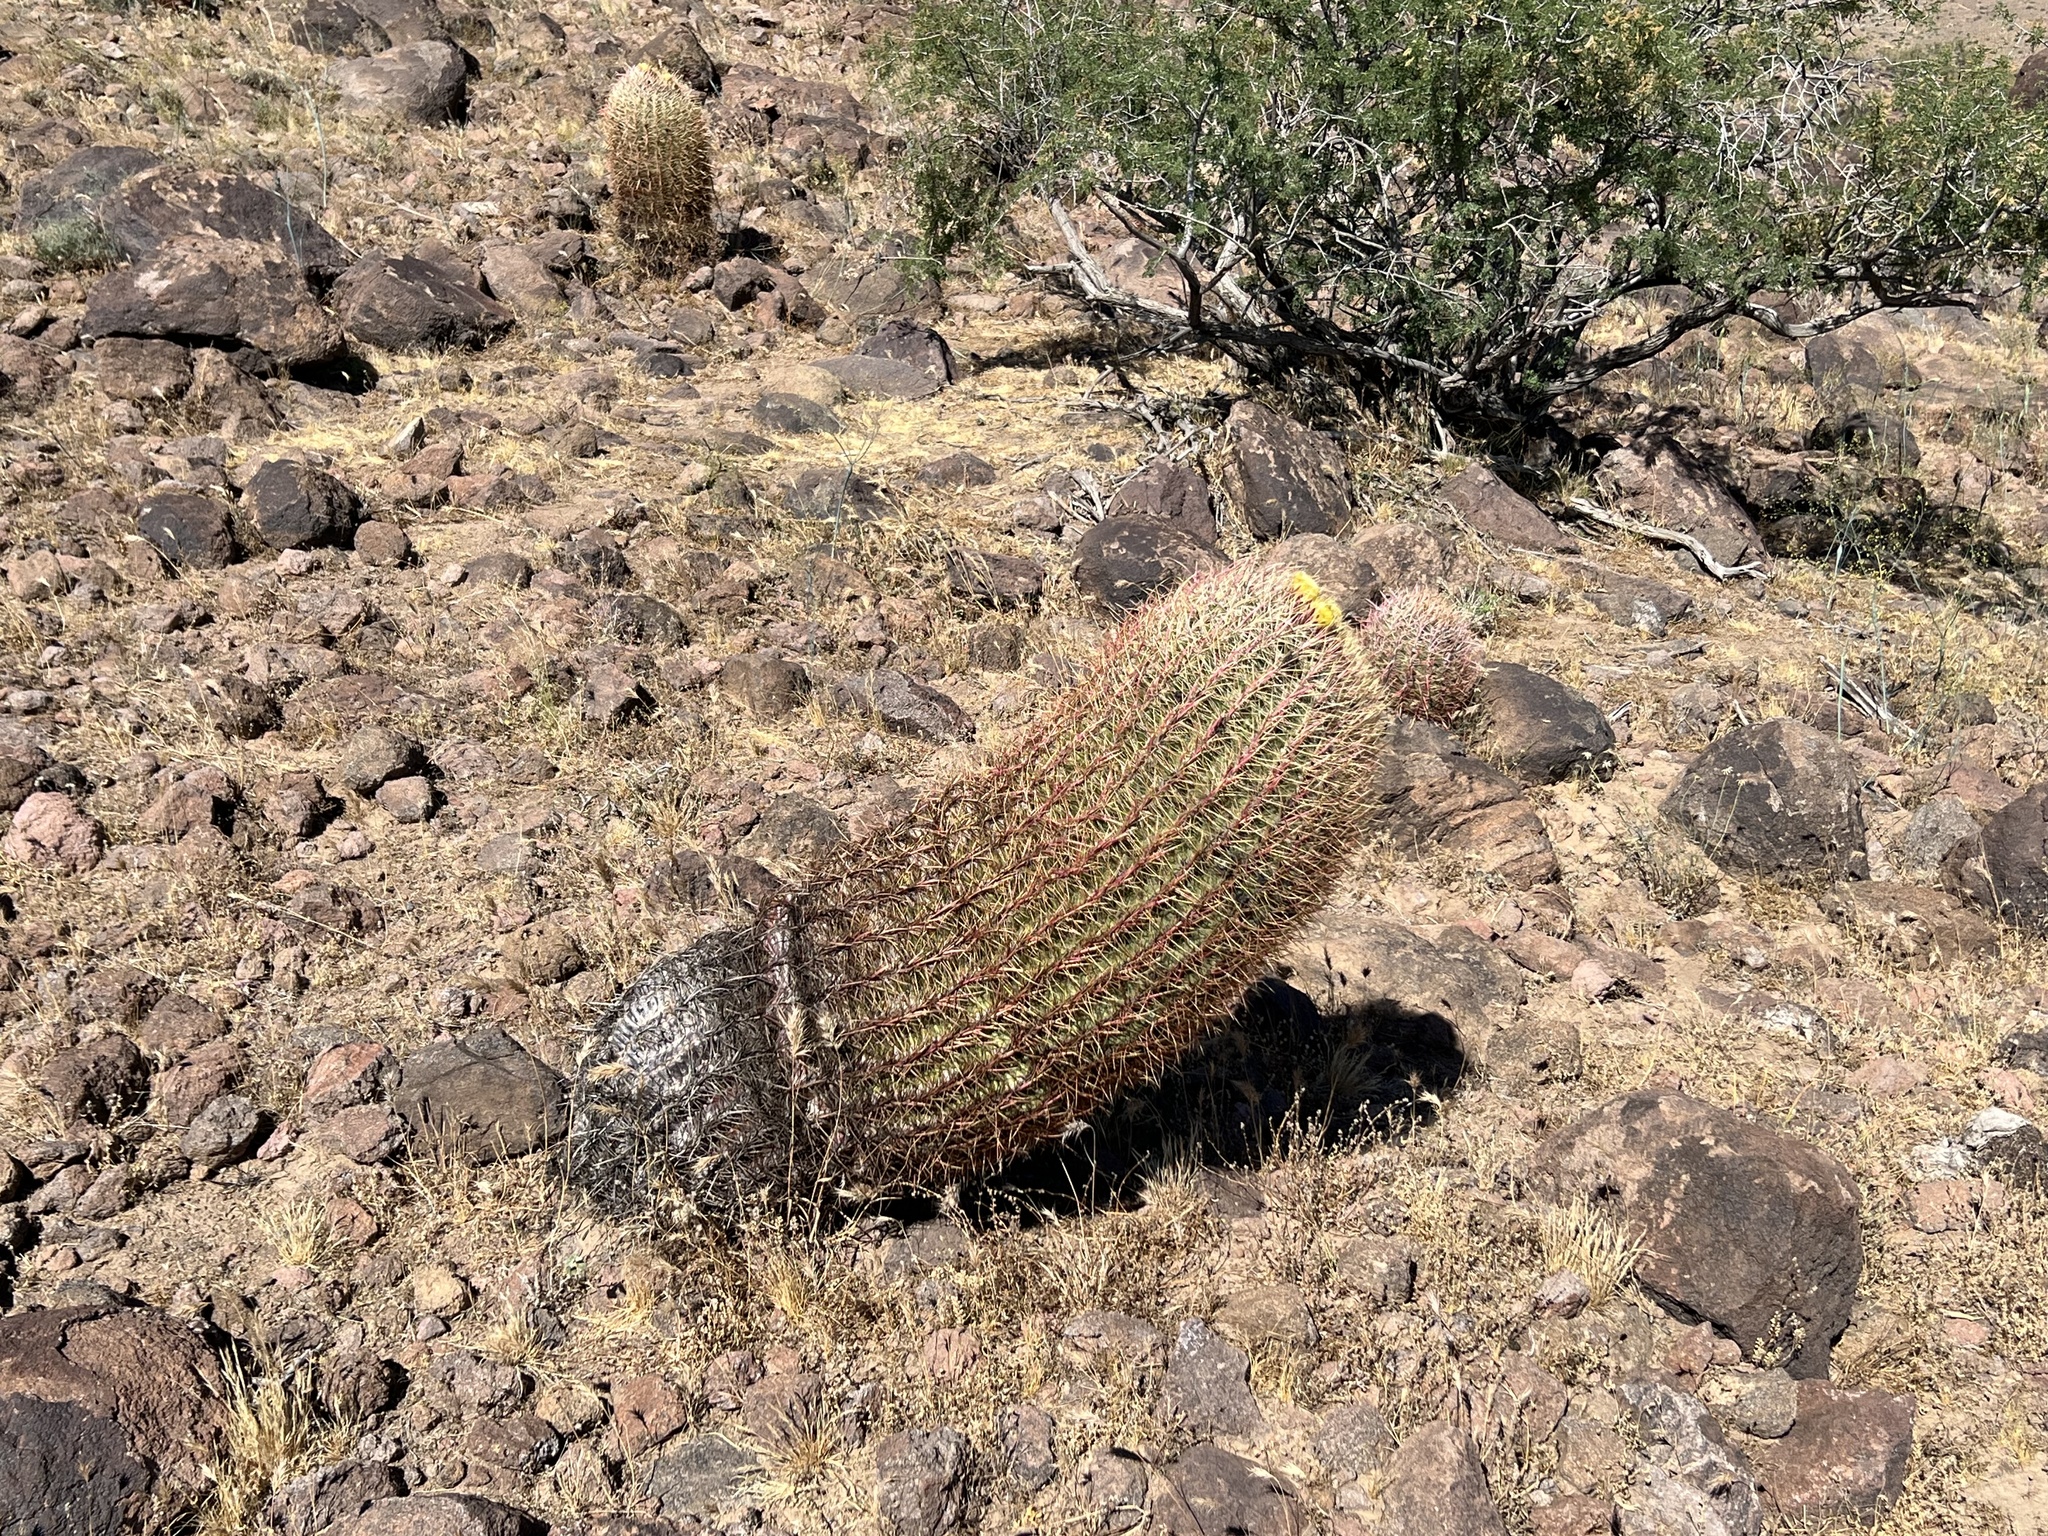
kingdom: Plantae
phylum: Tracheophyta
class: Magnoliopsida
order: Caryophyllales
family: Cactaceae
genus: Ferocactus
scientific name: Ferocactus cylindraceus
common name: California barrel cactus
